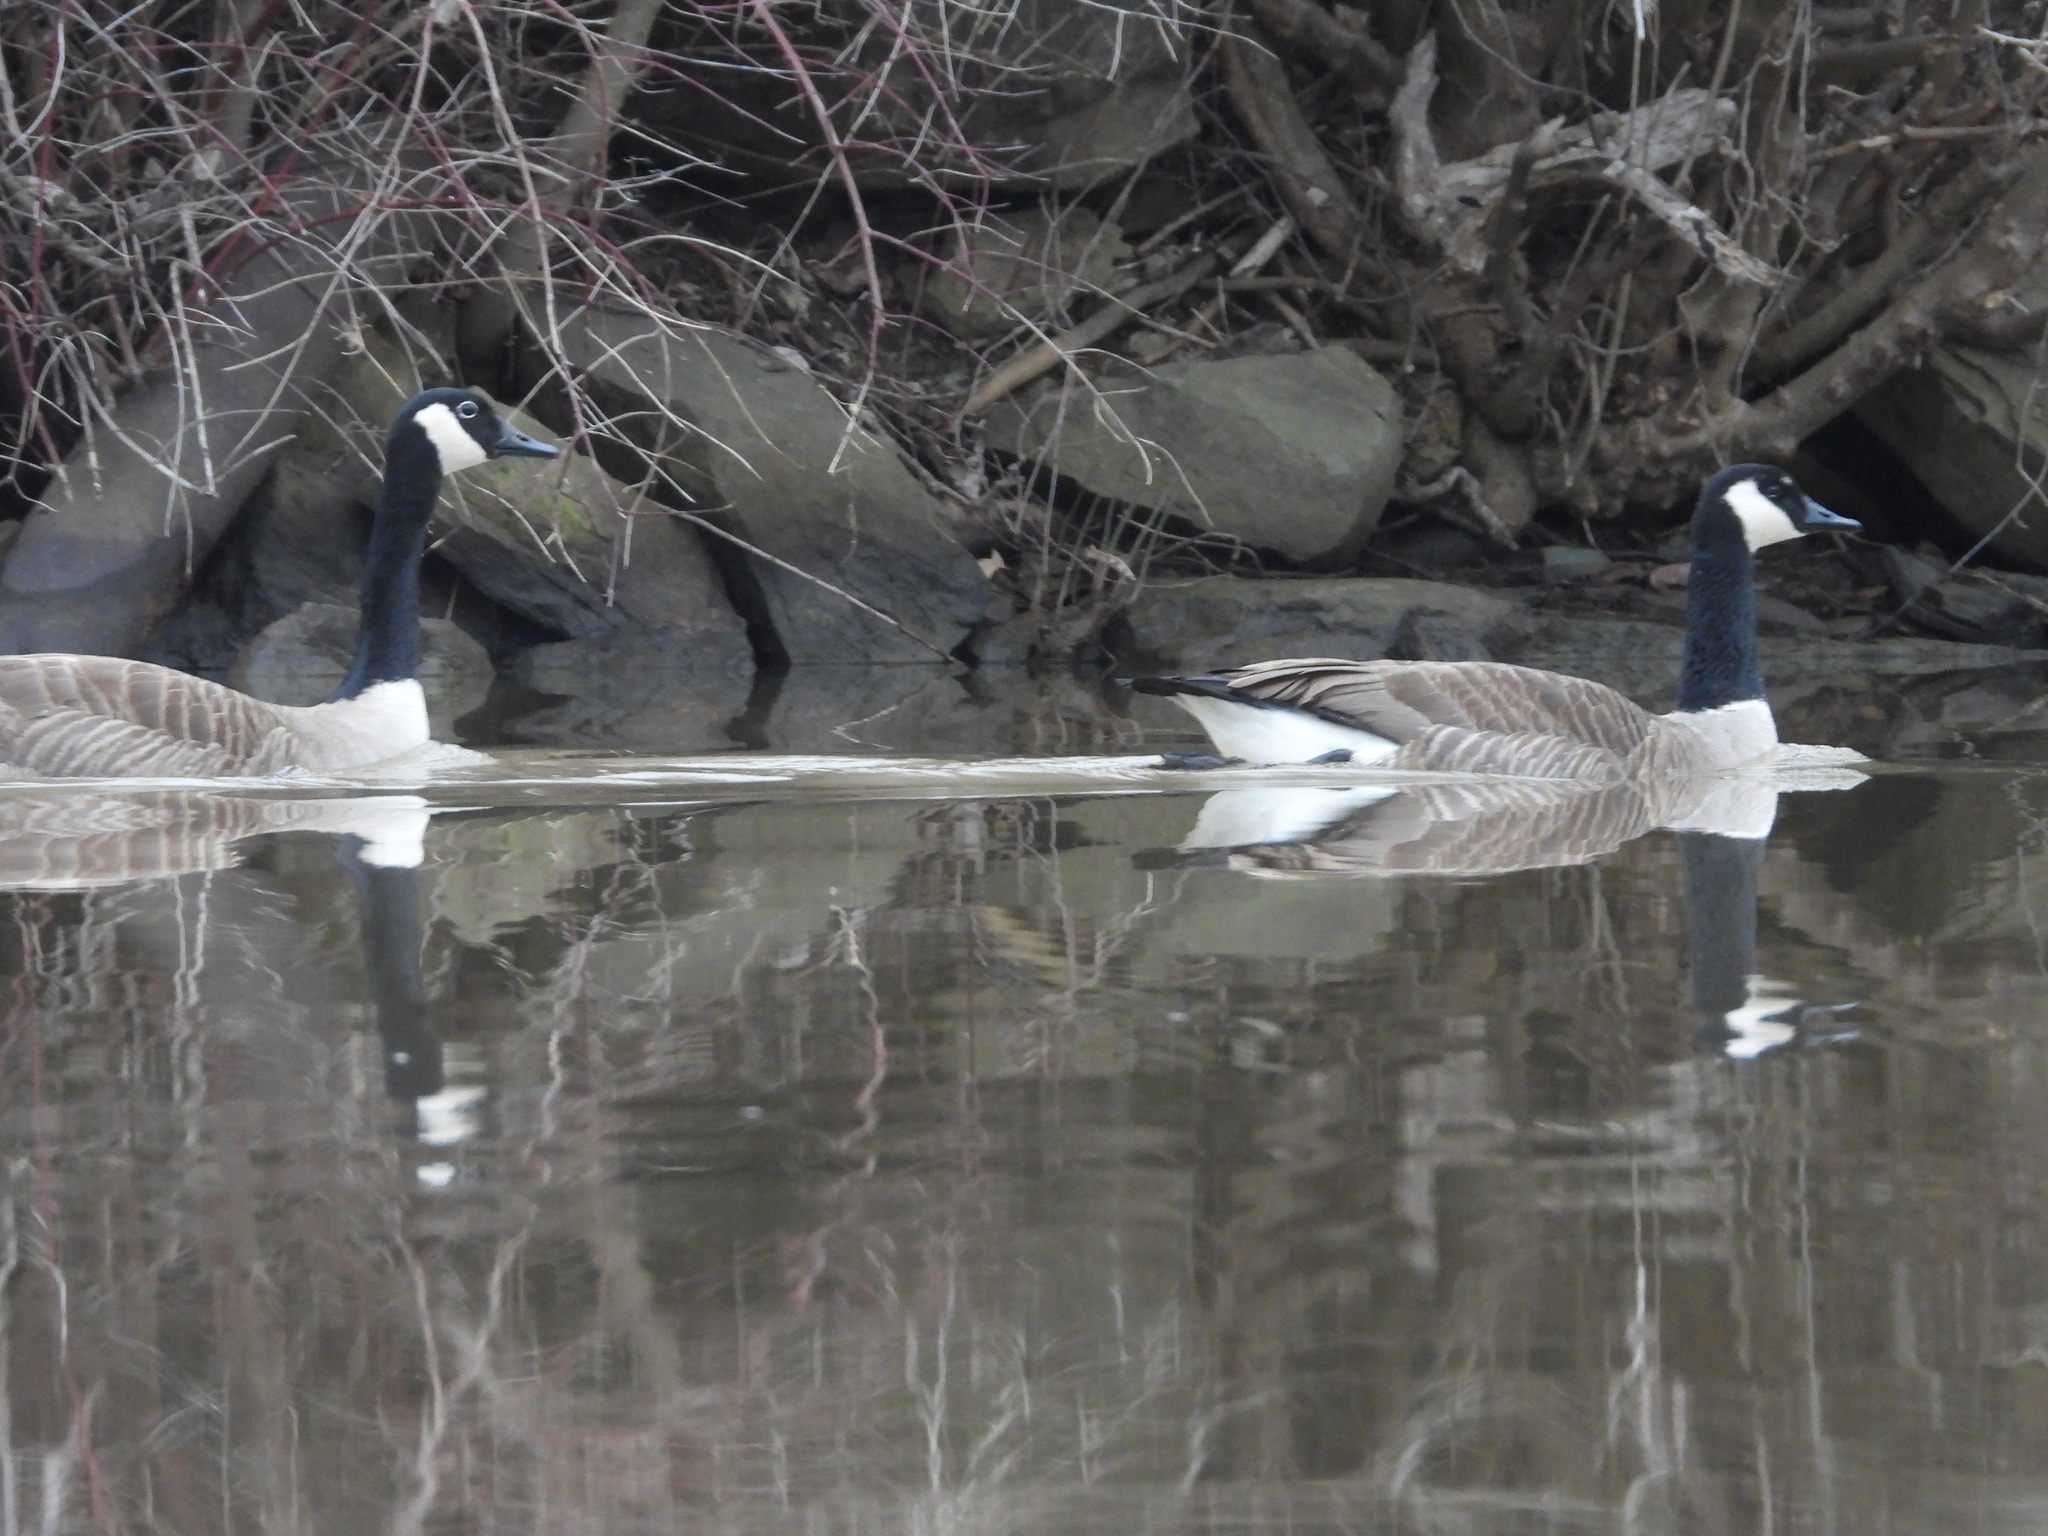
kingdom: Animalia
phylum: Chordata
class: Aves
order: Anseriformes
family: Anatidae
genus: Branta
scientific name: Branta canadensis
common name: Canada goose
